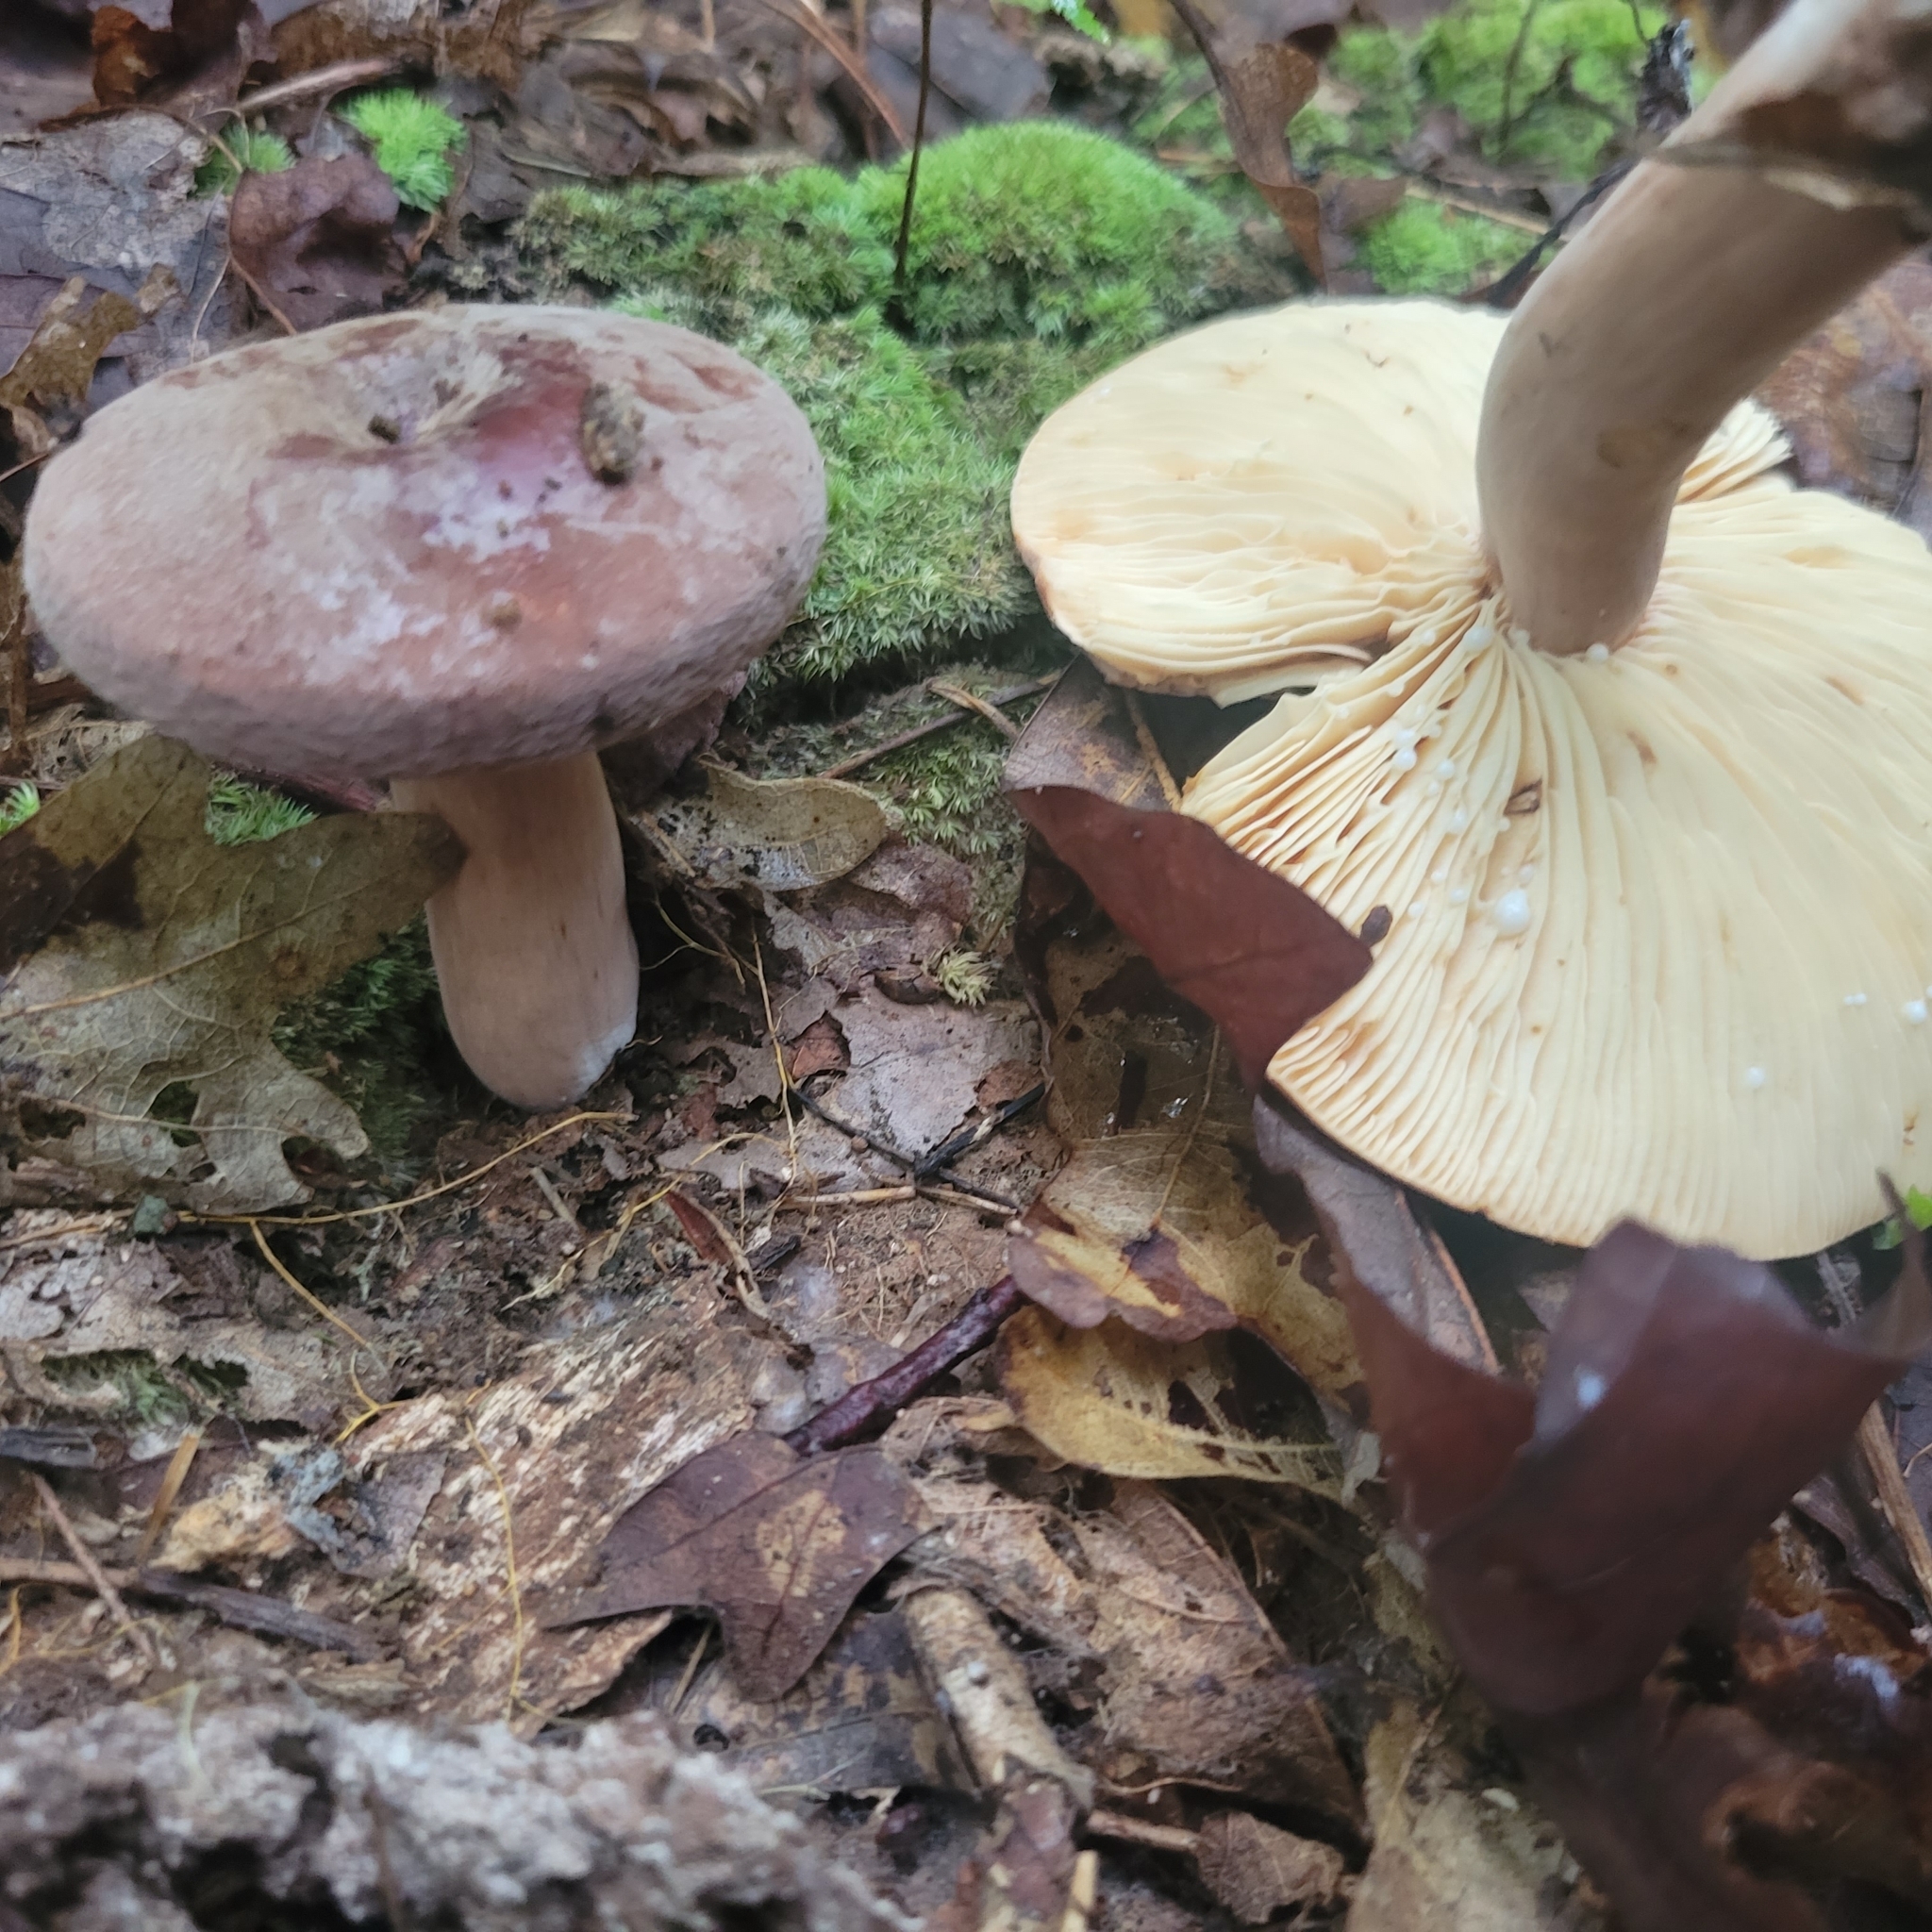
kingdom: Fungi
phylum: Basidiomycota
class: Agaricomycetes
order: Russulales
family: Russulaceae
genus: Lactarius
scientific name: Lactarius corrugis
